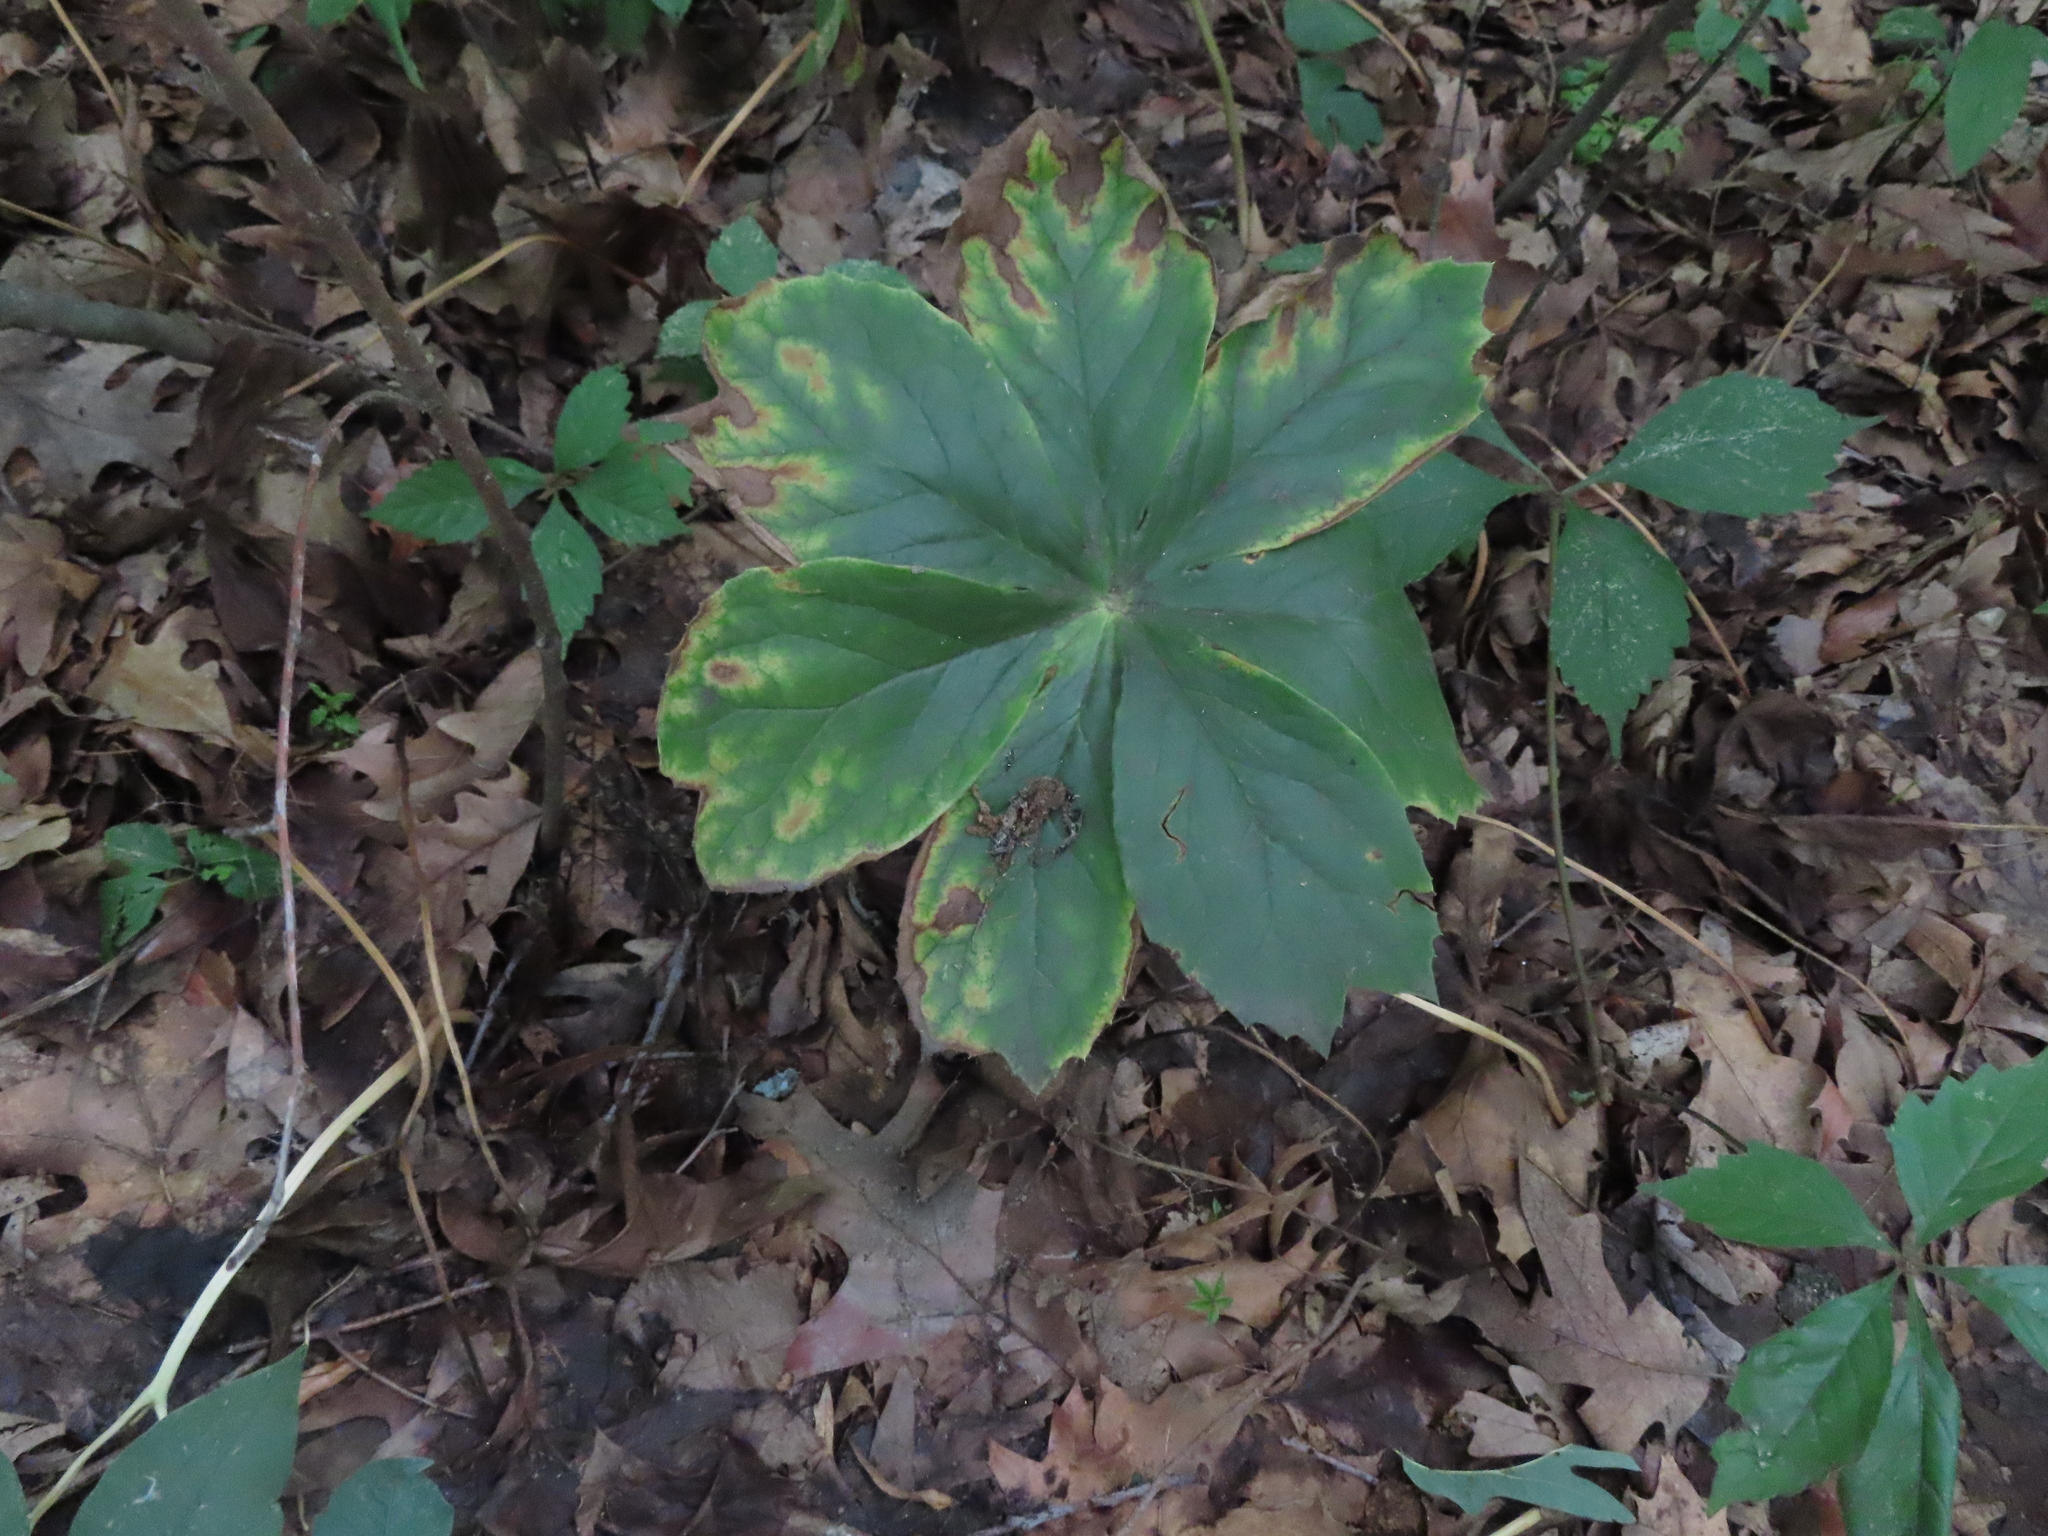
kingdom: Plantae
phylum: Tracheophyta
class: Magnoliopsida
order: Ranunculales
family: Berberidaceae
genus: Podophyllum
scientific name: Podophyllum peltatum
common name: Wild mandrake
